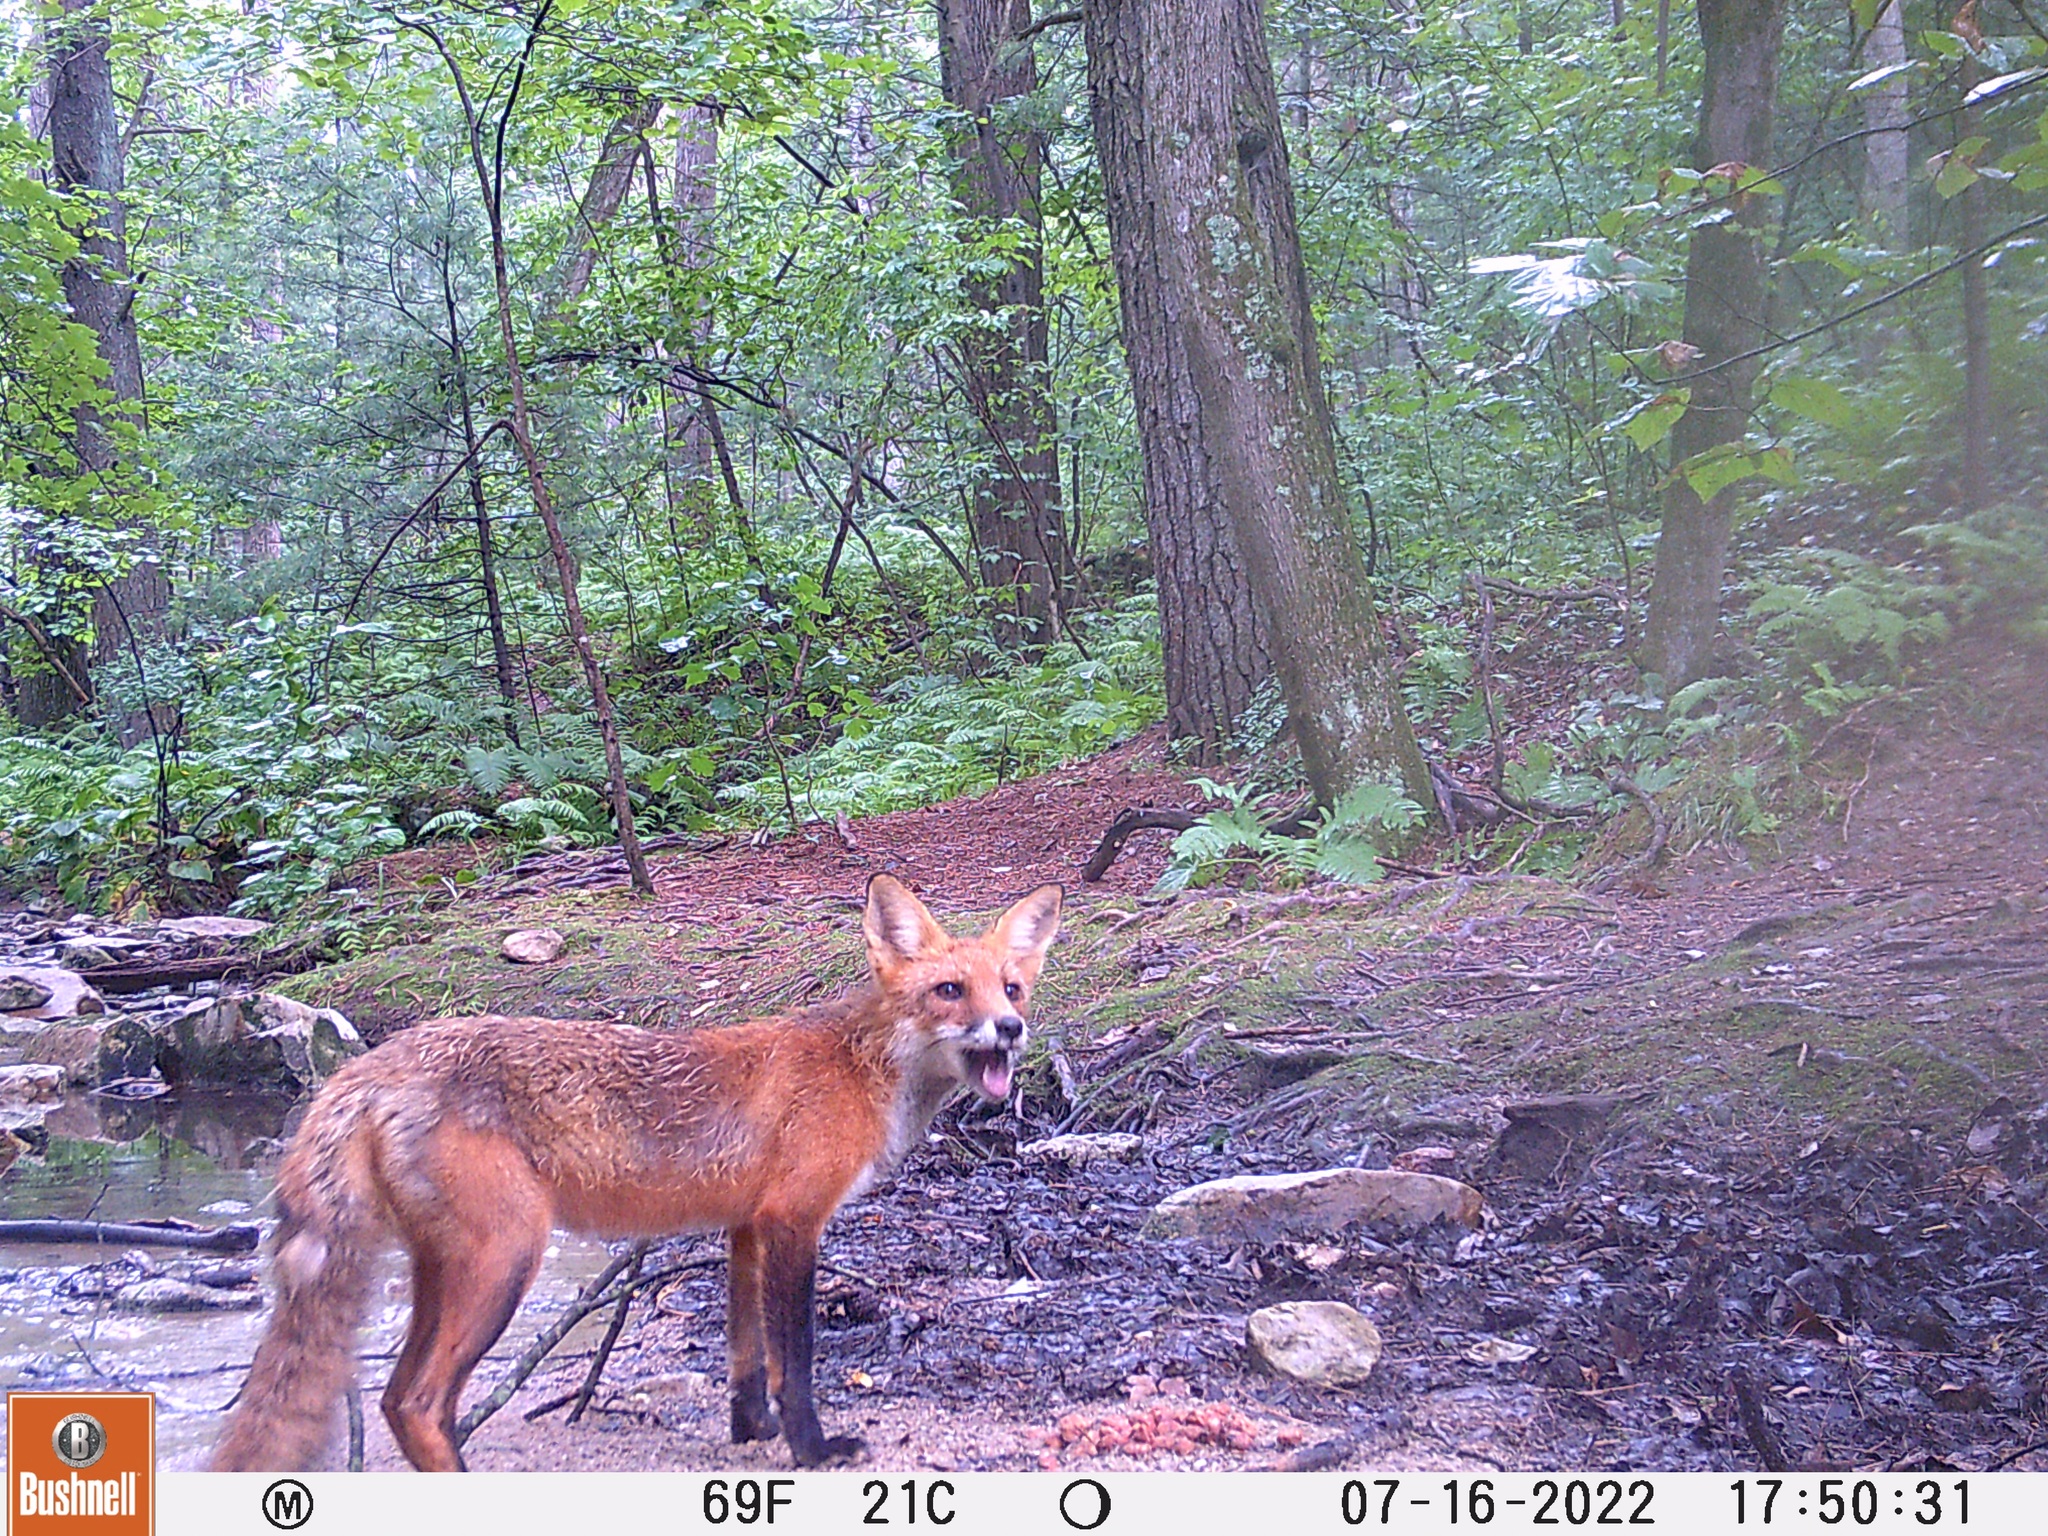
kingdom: Animalia
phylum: Chordata
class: Mammalia
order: Carnivora
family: Canidae
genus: Vulpes
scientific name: Vulpes vulpes
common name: Red fox
